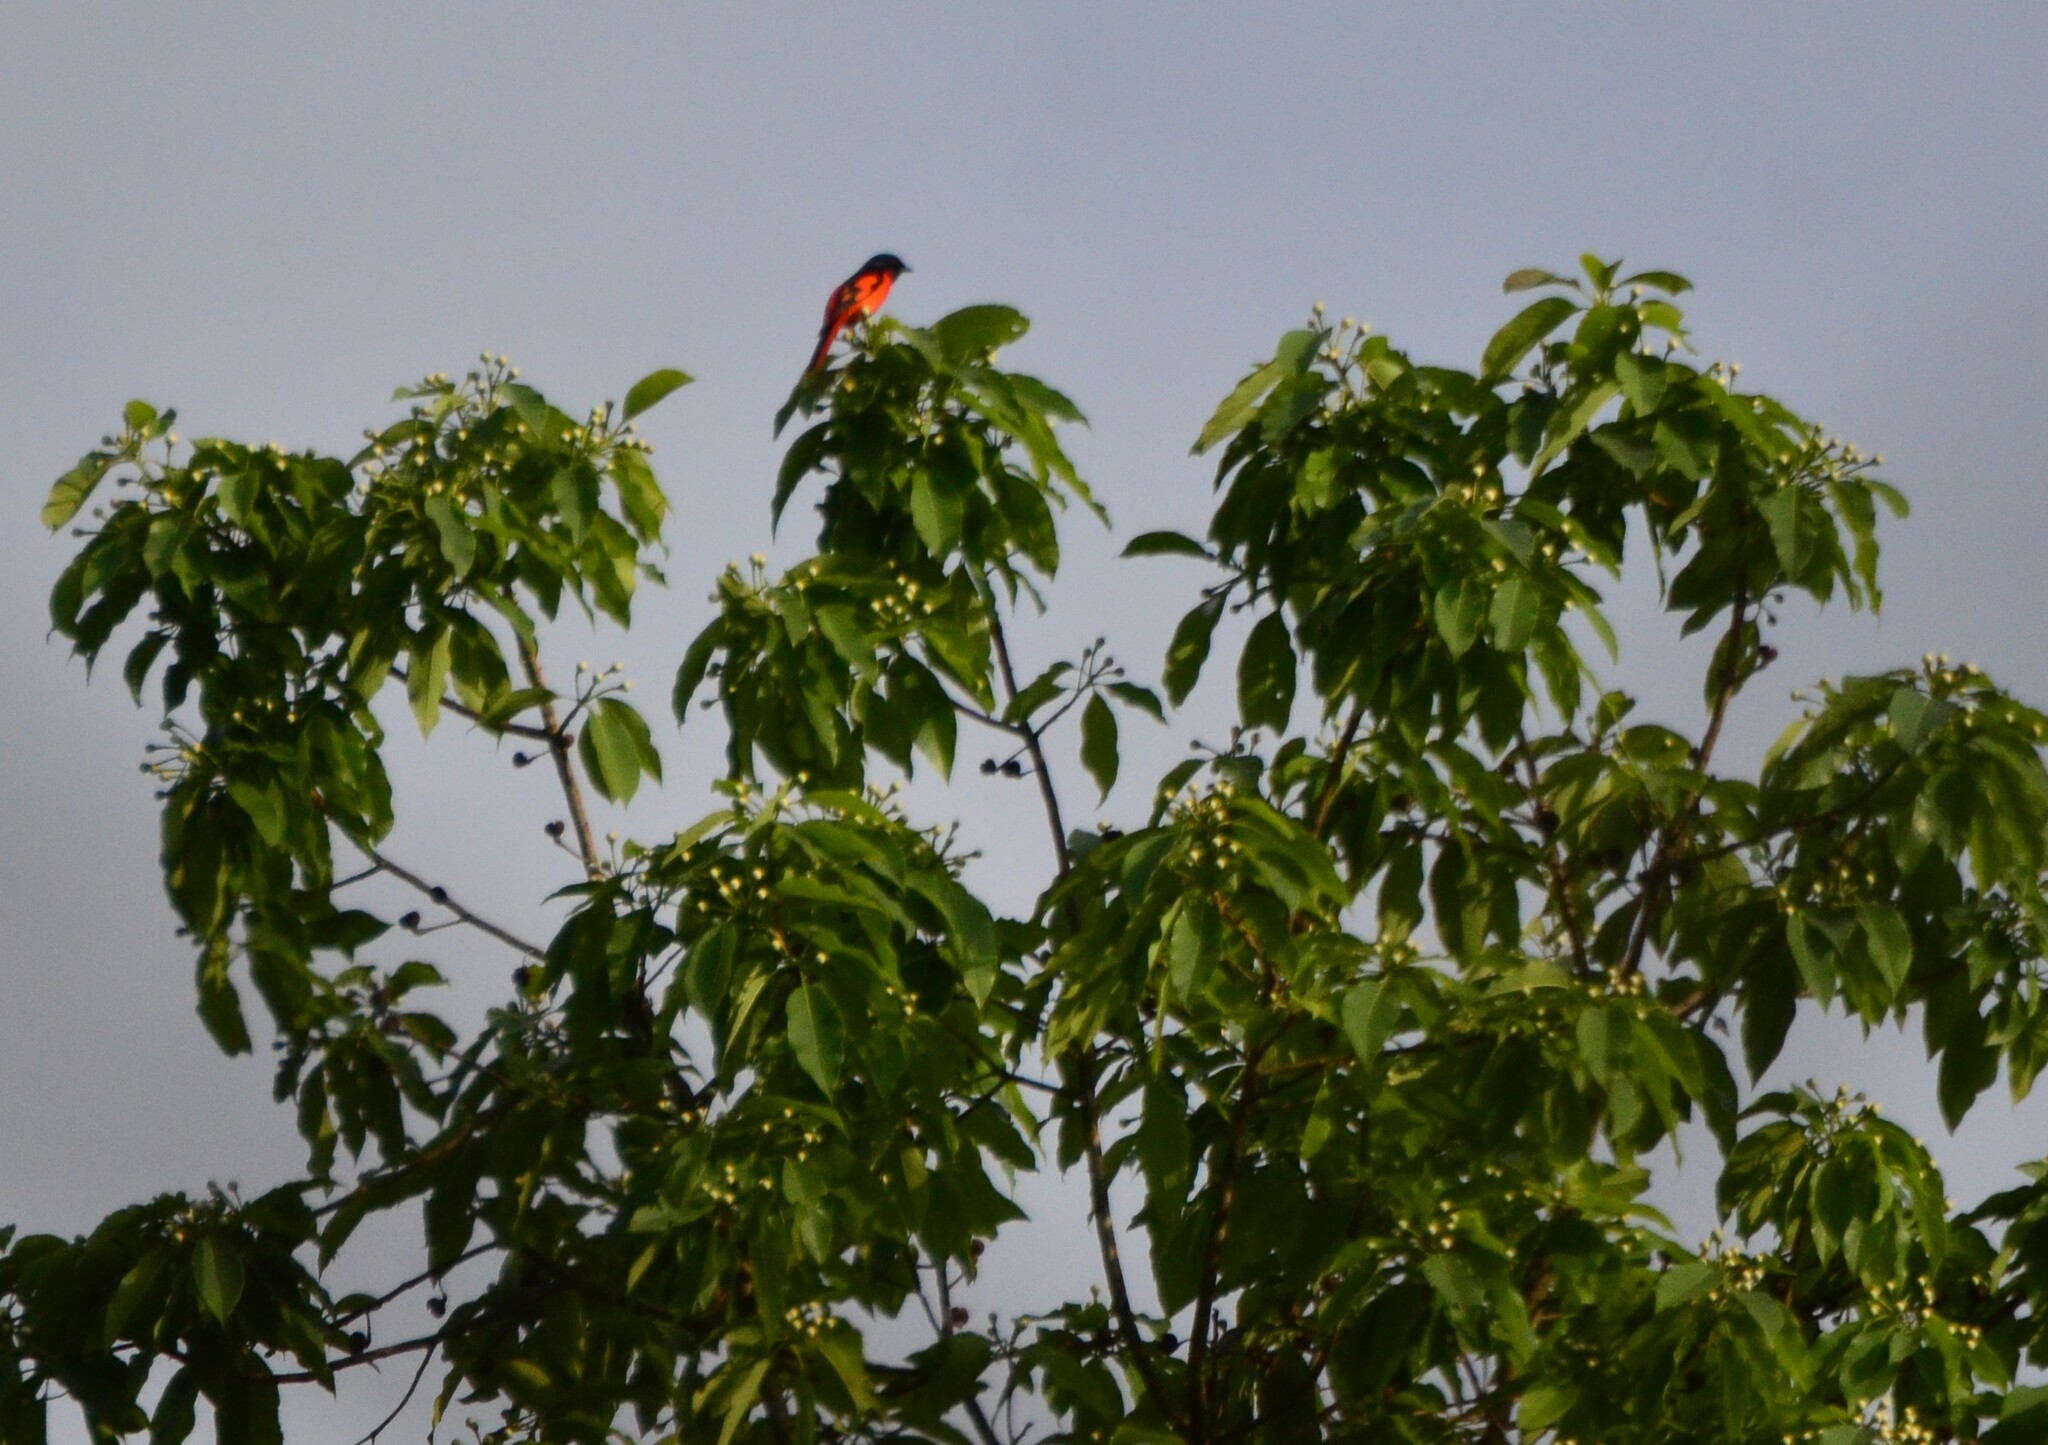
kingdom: Animalia
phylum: Chordata
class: Aves
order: Passeriformes
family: Campephagidae
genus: Pericrocotus
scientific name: Pericrocotus speciosus
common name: Scarlet minivet
